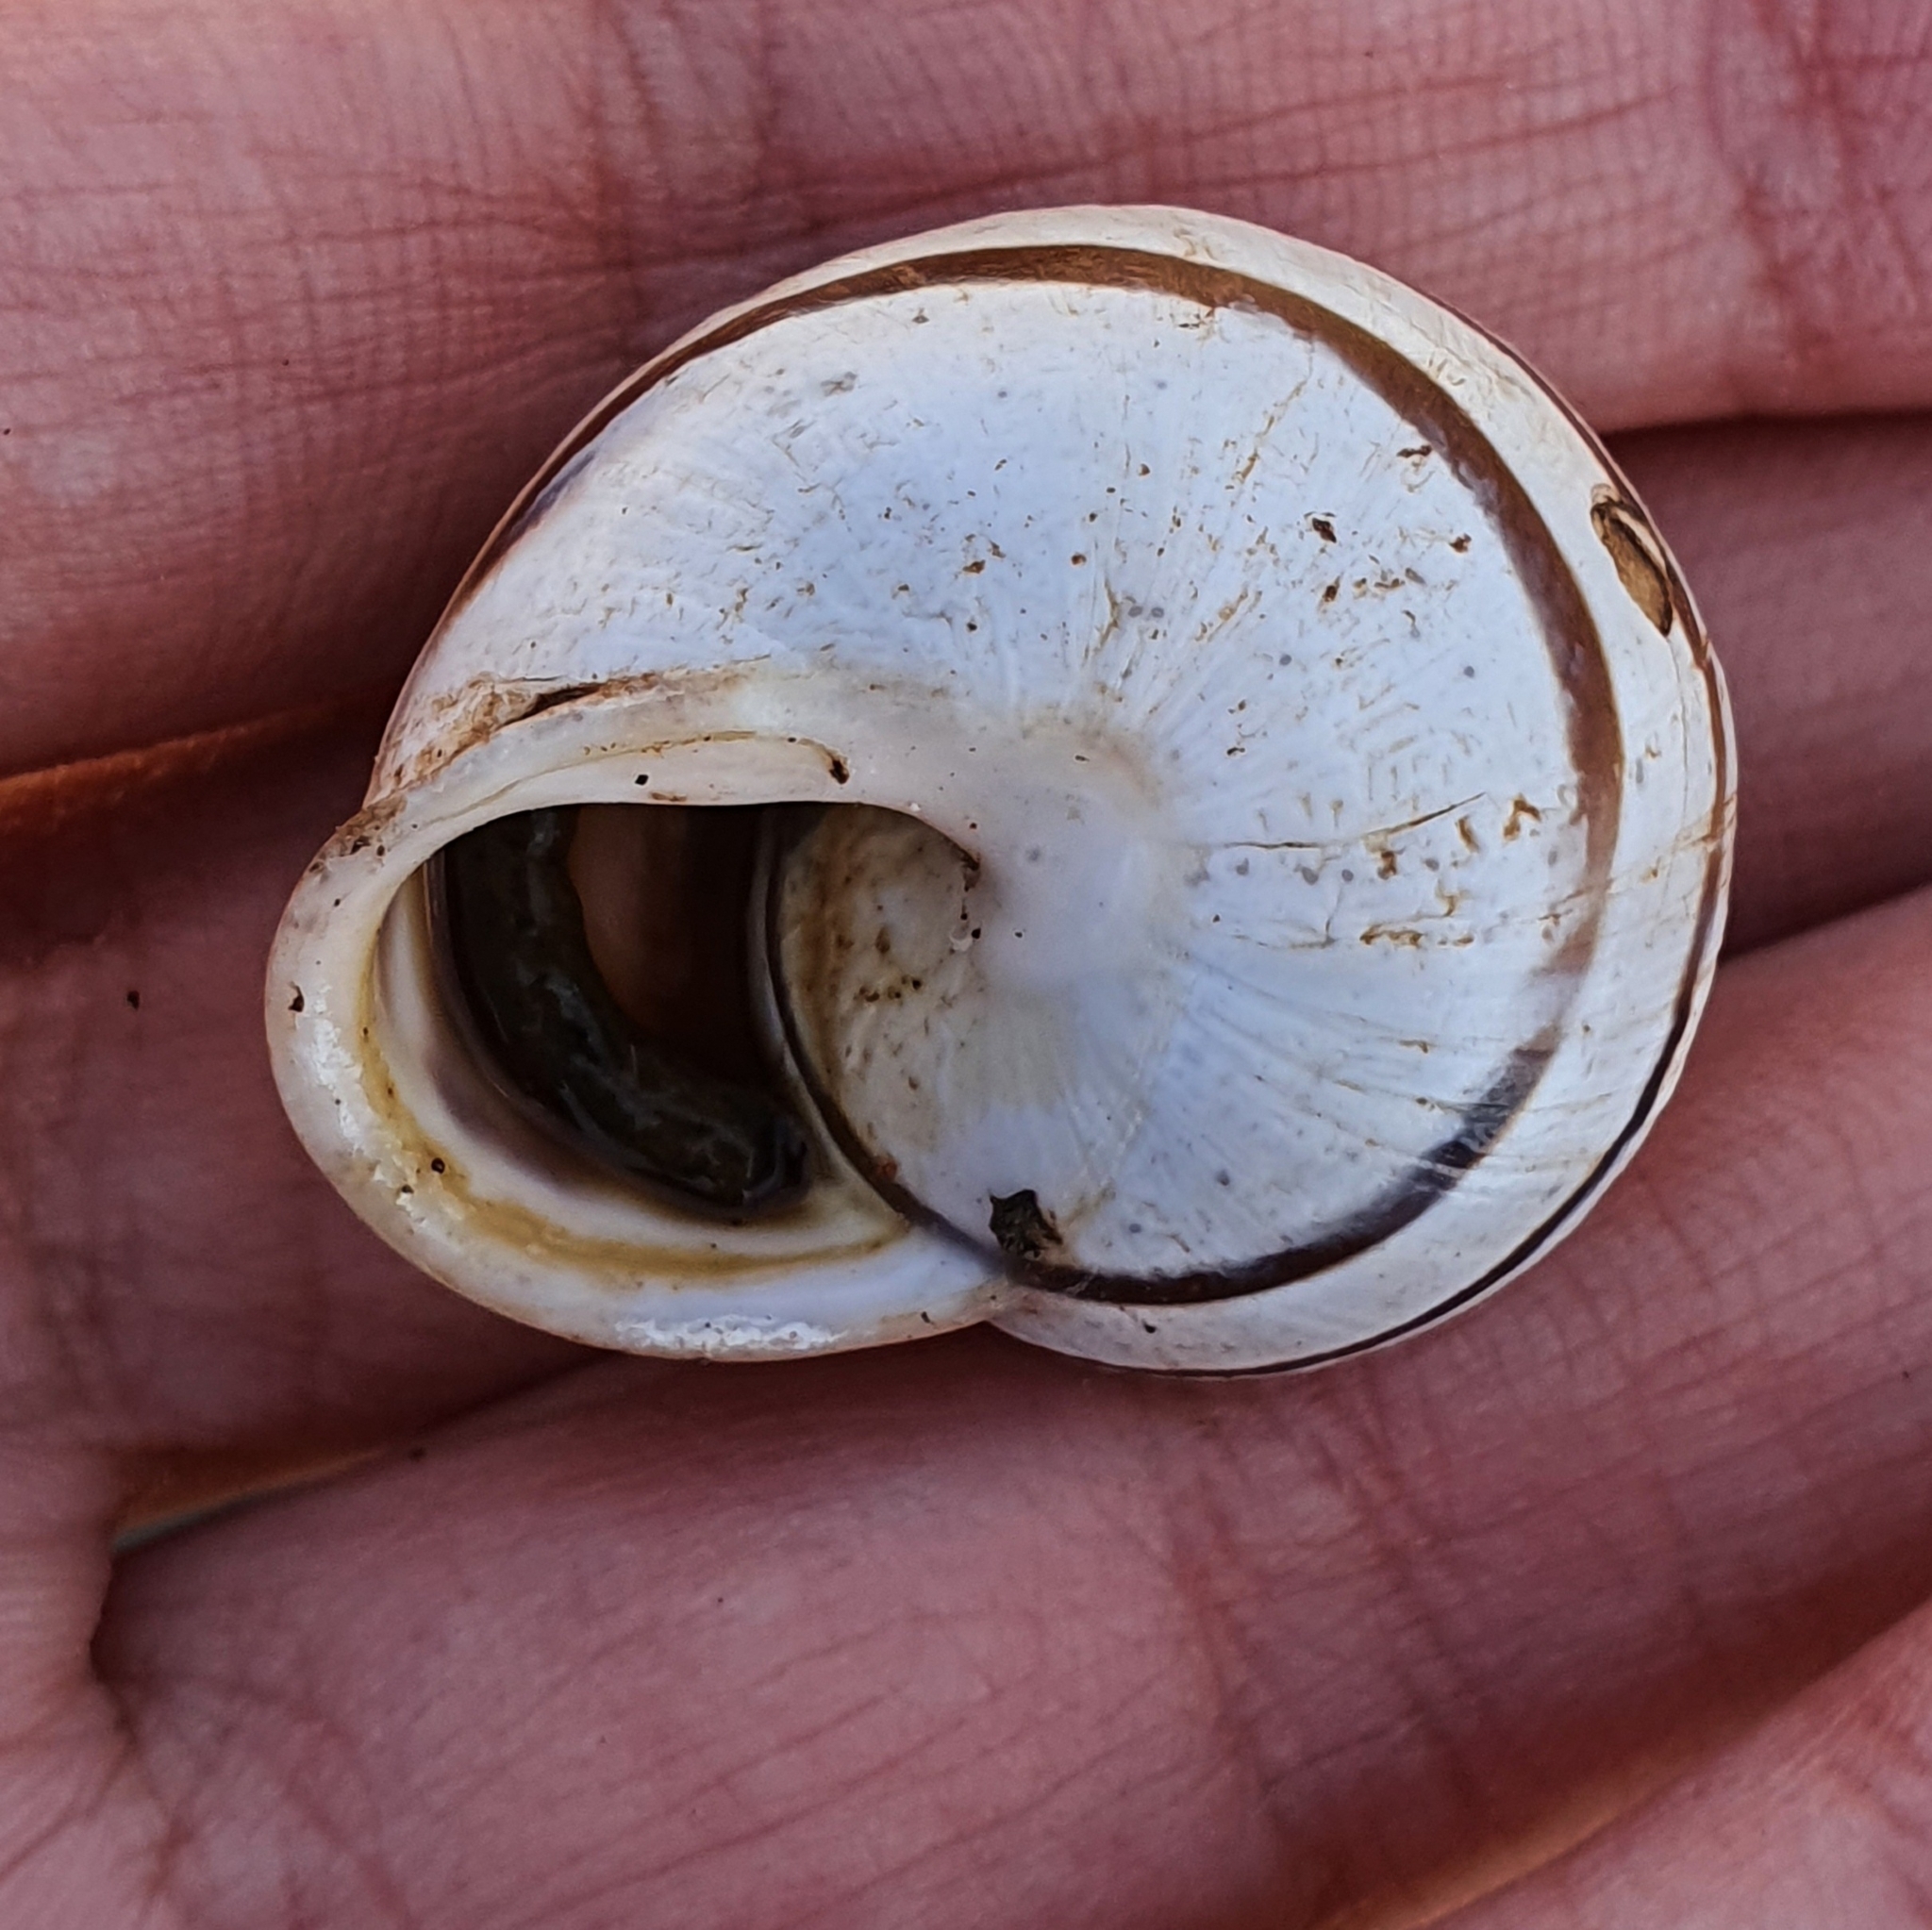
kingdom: Animalia
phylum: Mollusca
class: Gastropoda
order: Stylommatophora
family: Helicidae
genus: Eobania
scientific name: Eobania vermiculata
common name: Chocolateband snail
